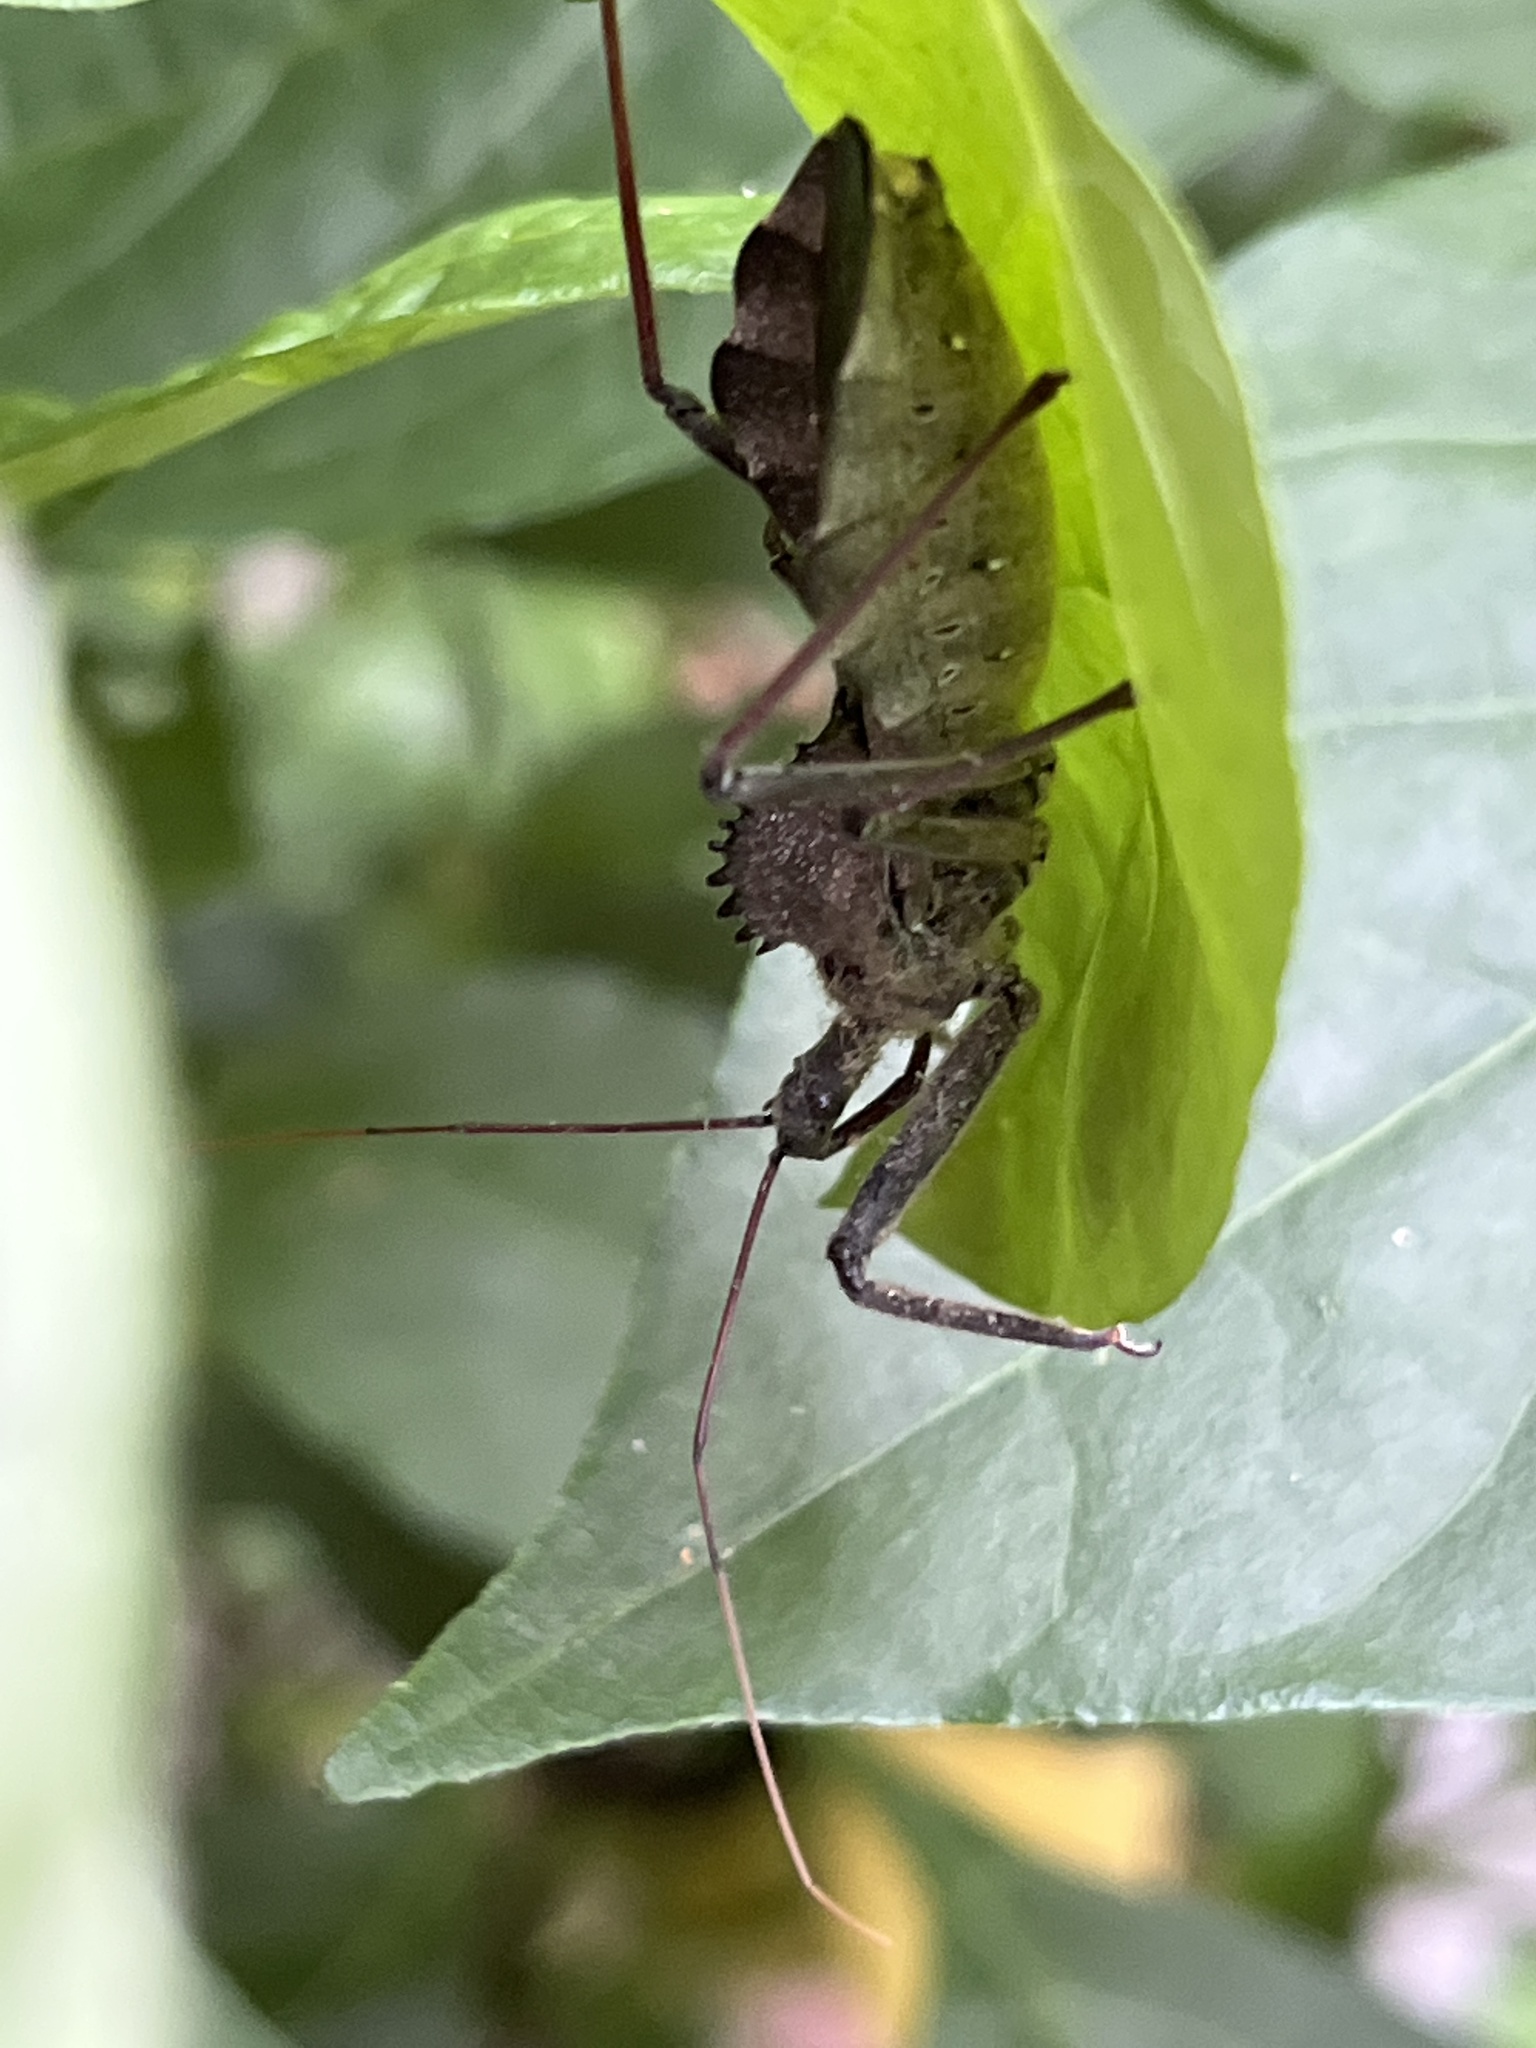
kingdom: Animalia
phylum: Arthropoda
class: Insecta
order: Hemiptera
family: Reduviidae
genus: Arilus
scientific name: Arilus cristatus
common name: North american wheel bug
